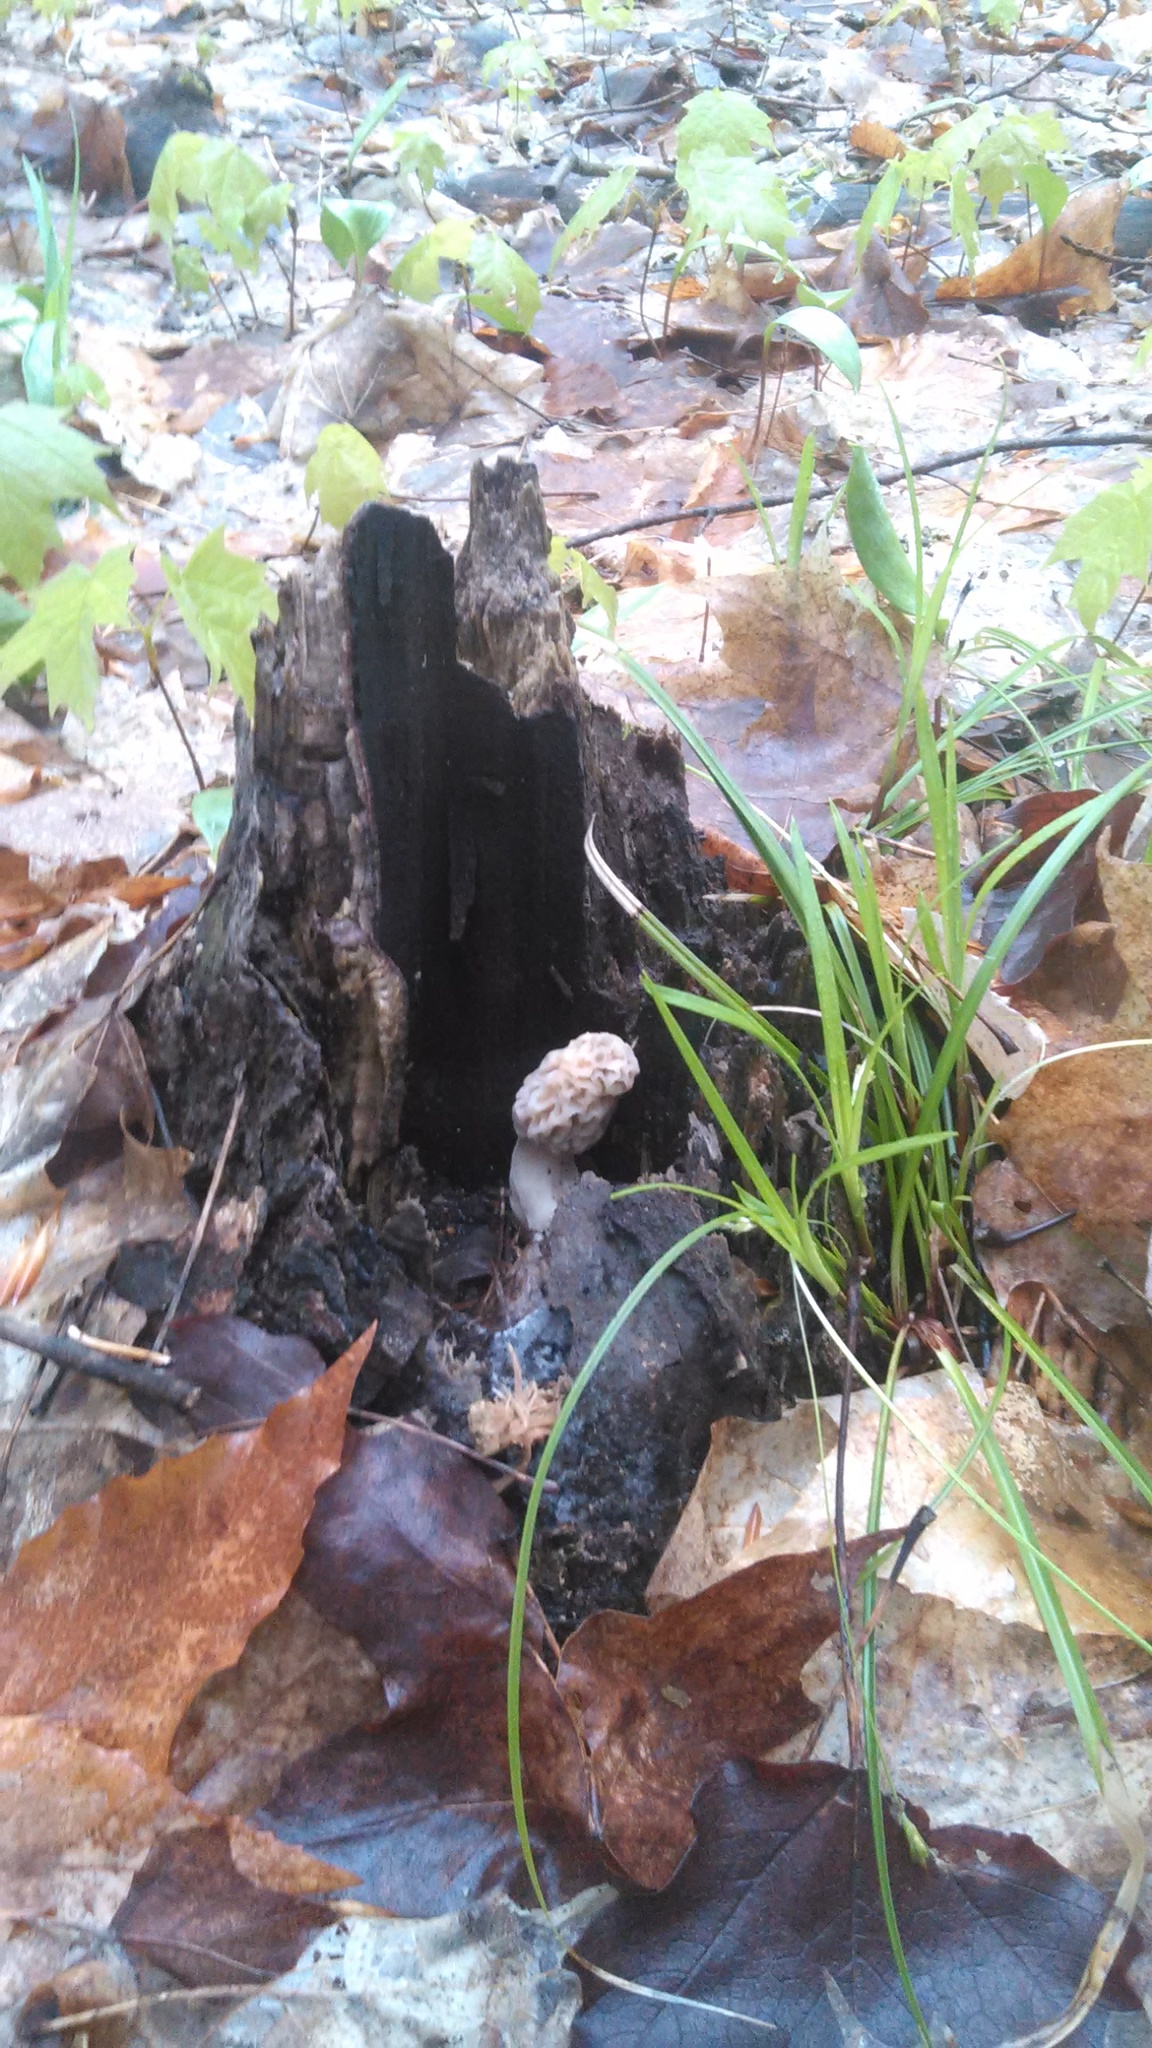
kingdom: Fungi
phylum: Ascomycota
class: Pezizomycetes
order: Pezizales
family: Morchellaceae
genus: Morchella
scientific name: Morchella americana
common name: White morel
